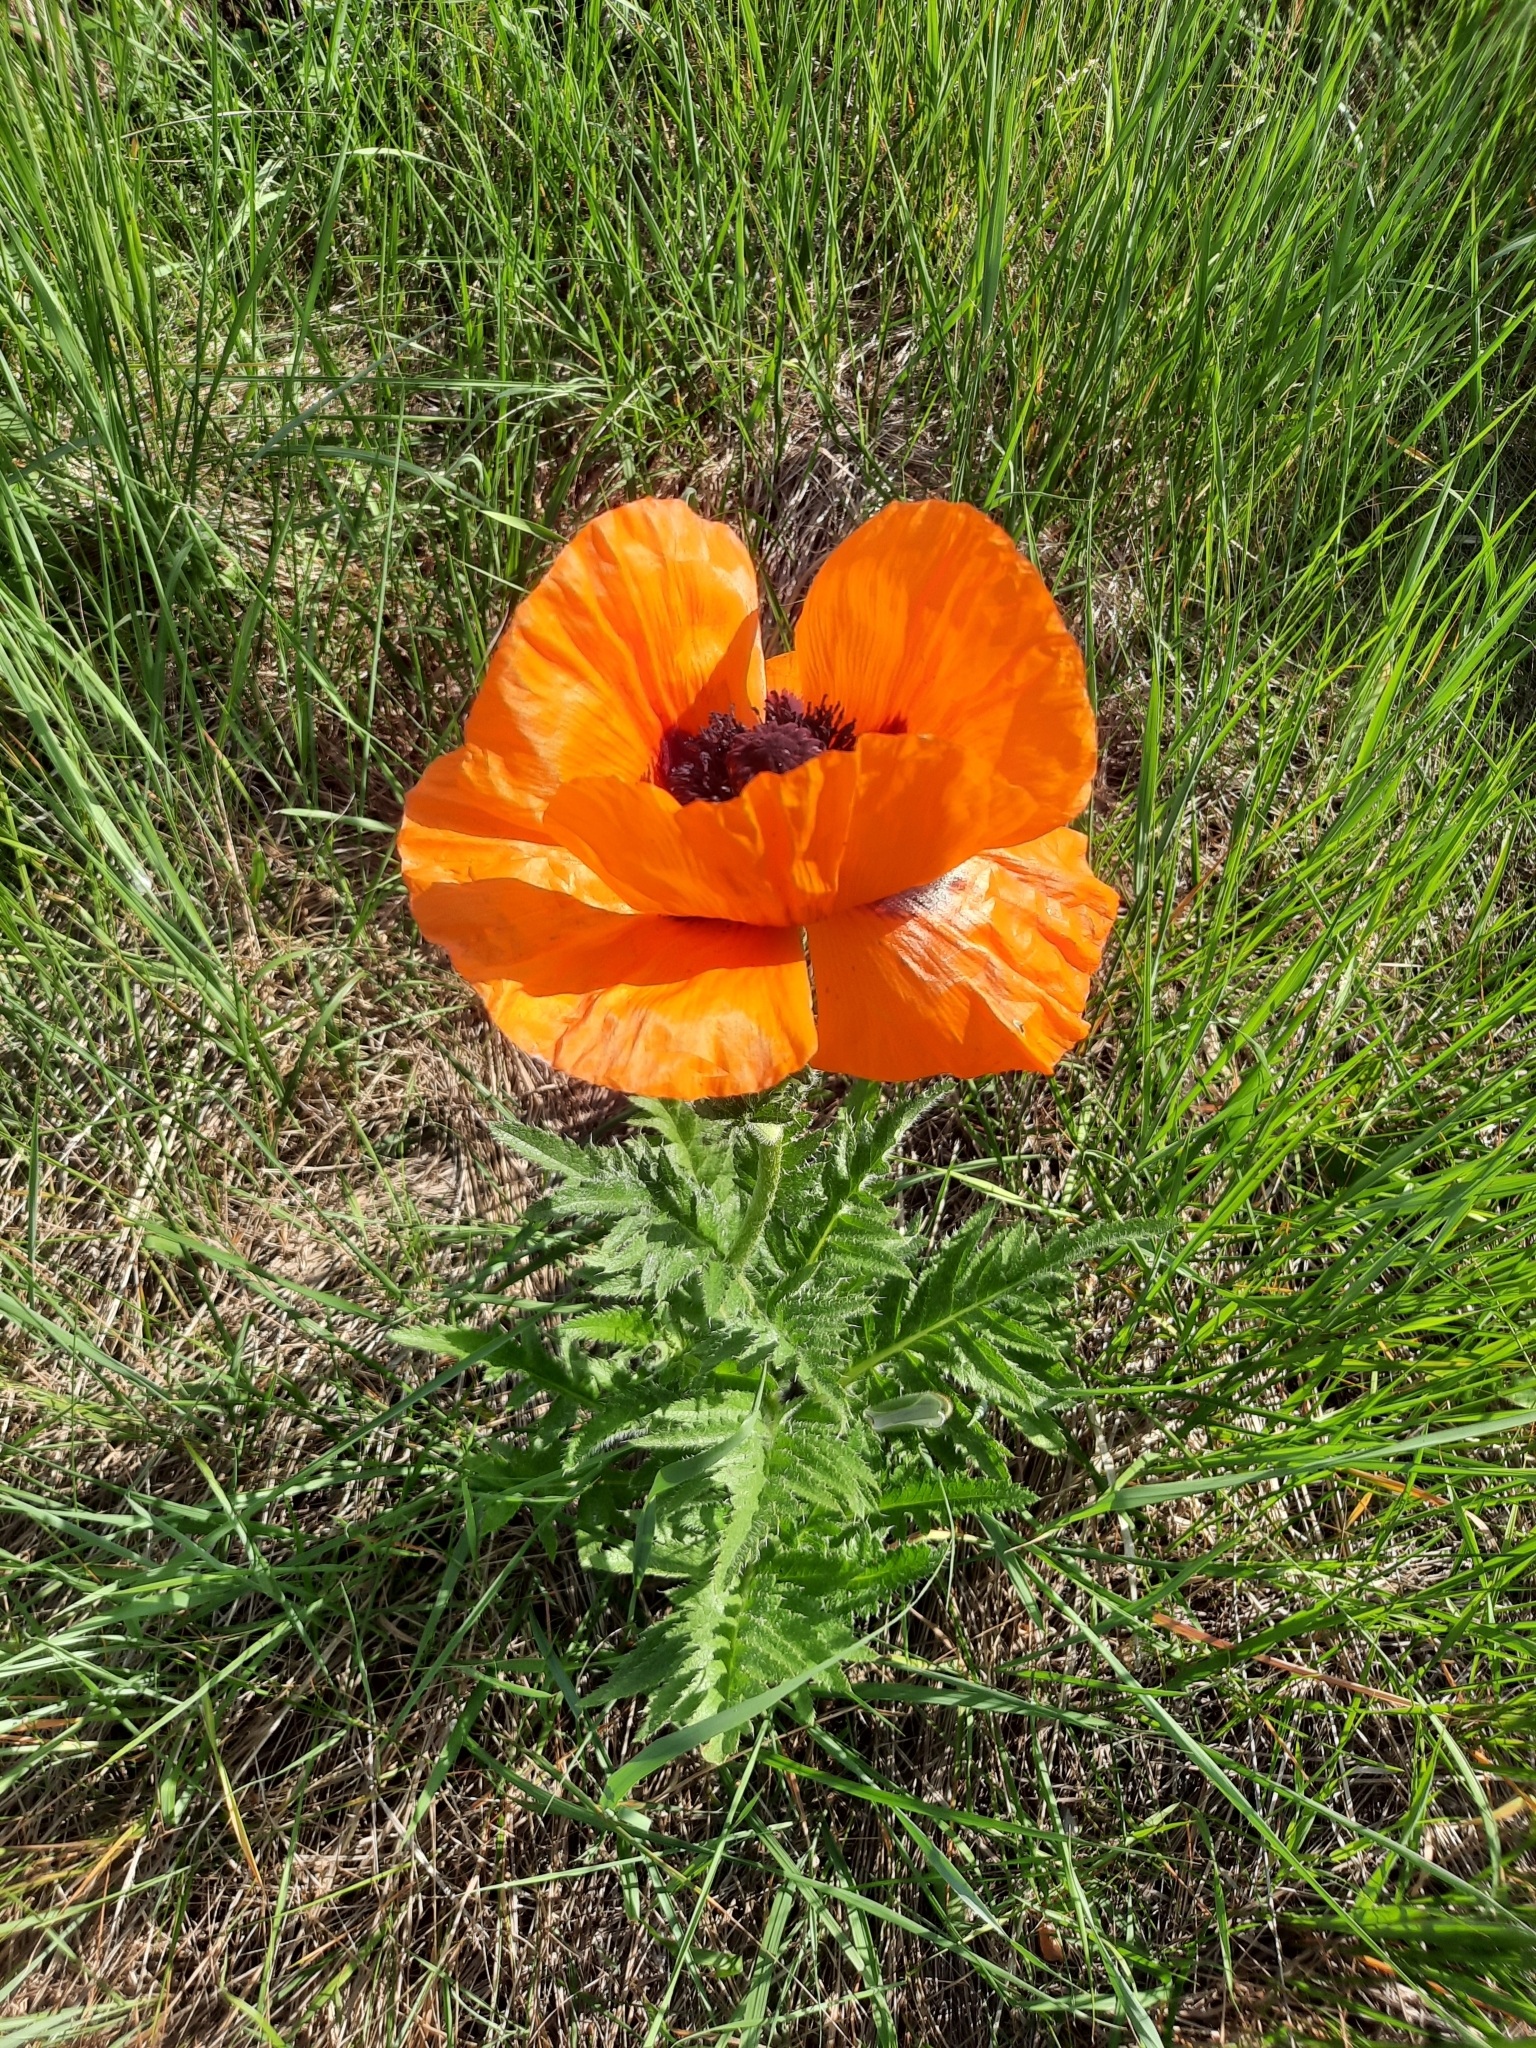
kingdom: Plantae
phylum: Tracheophyta
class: Magnoliopsida
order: Ranunculales
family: Papaveraceae
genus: Papaver
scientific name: Papaver orientale
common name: Oriental poppy
